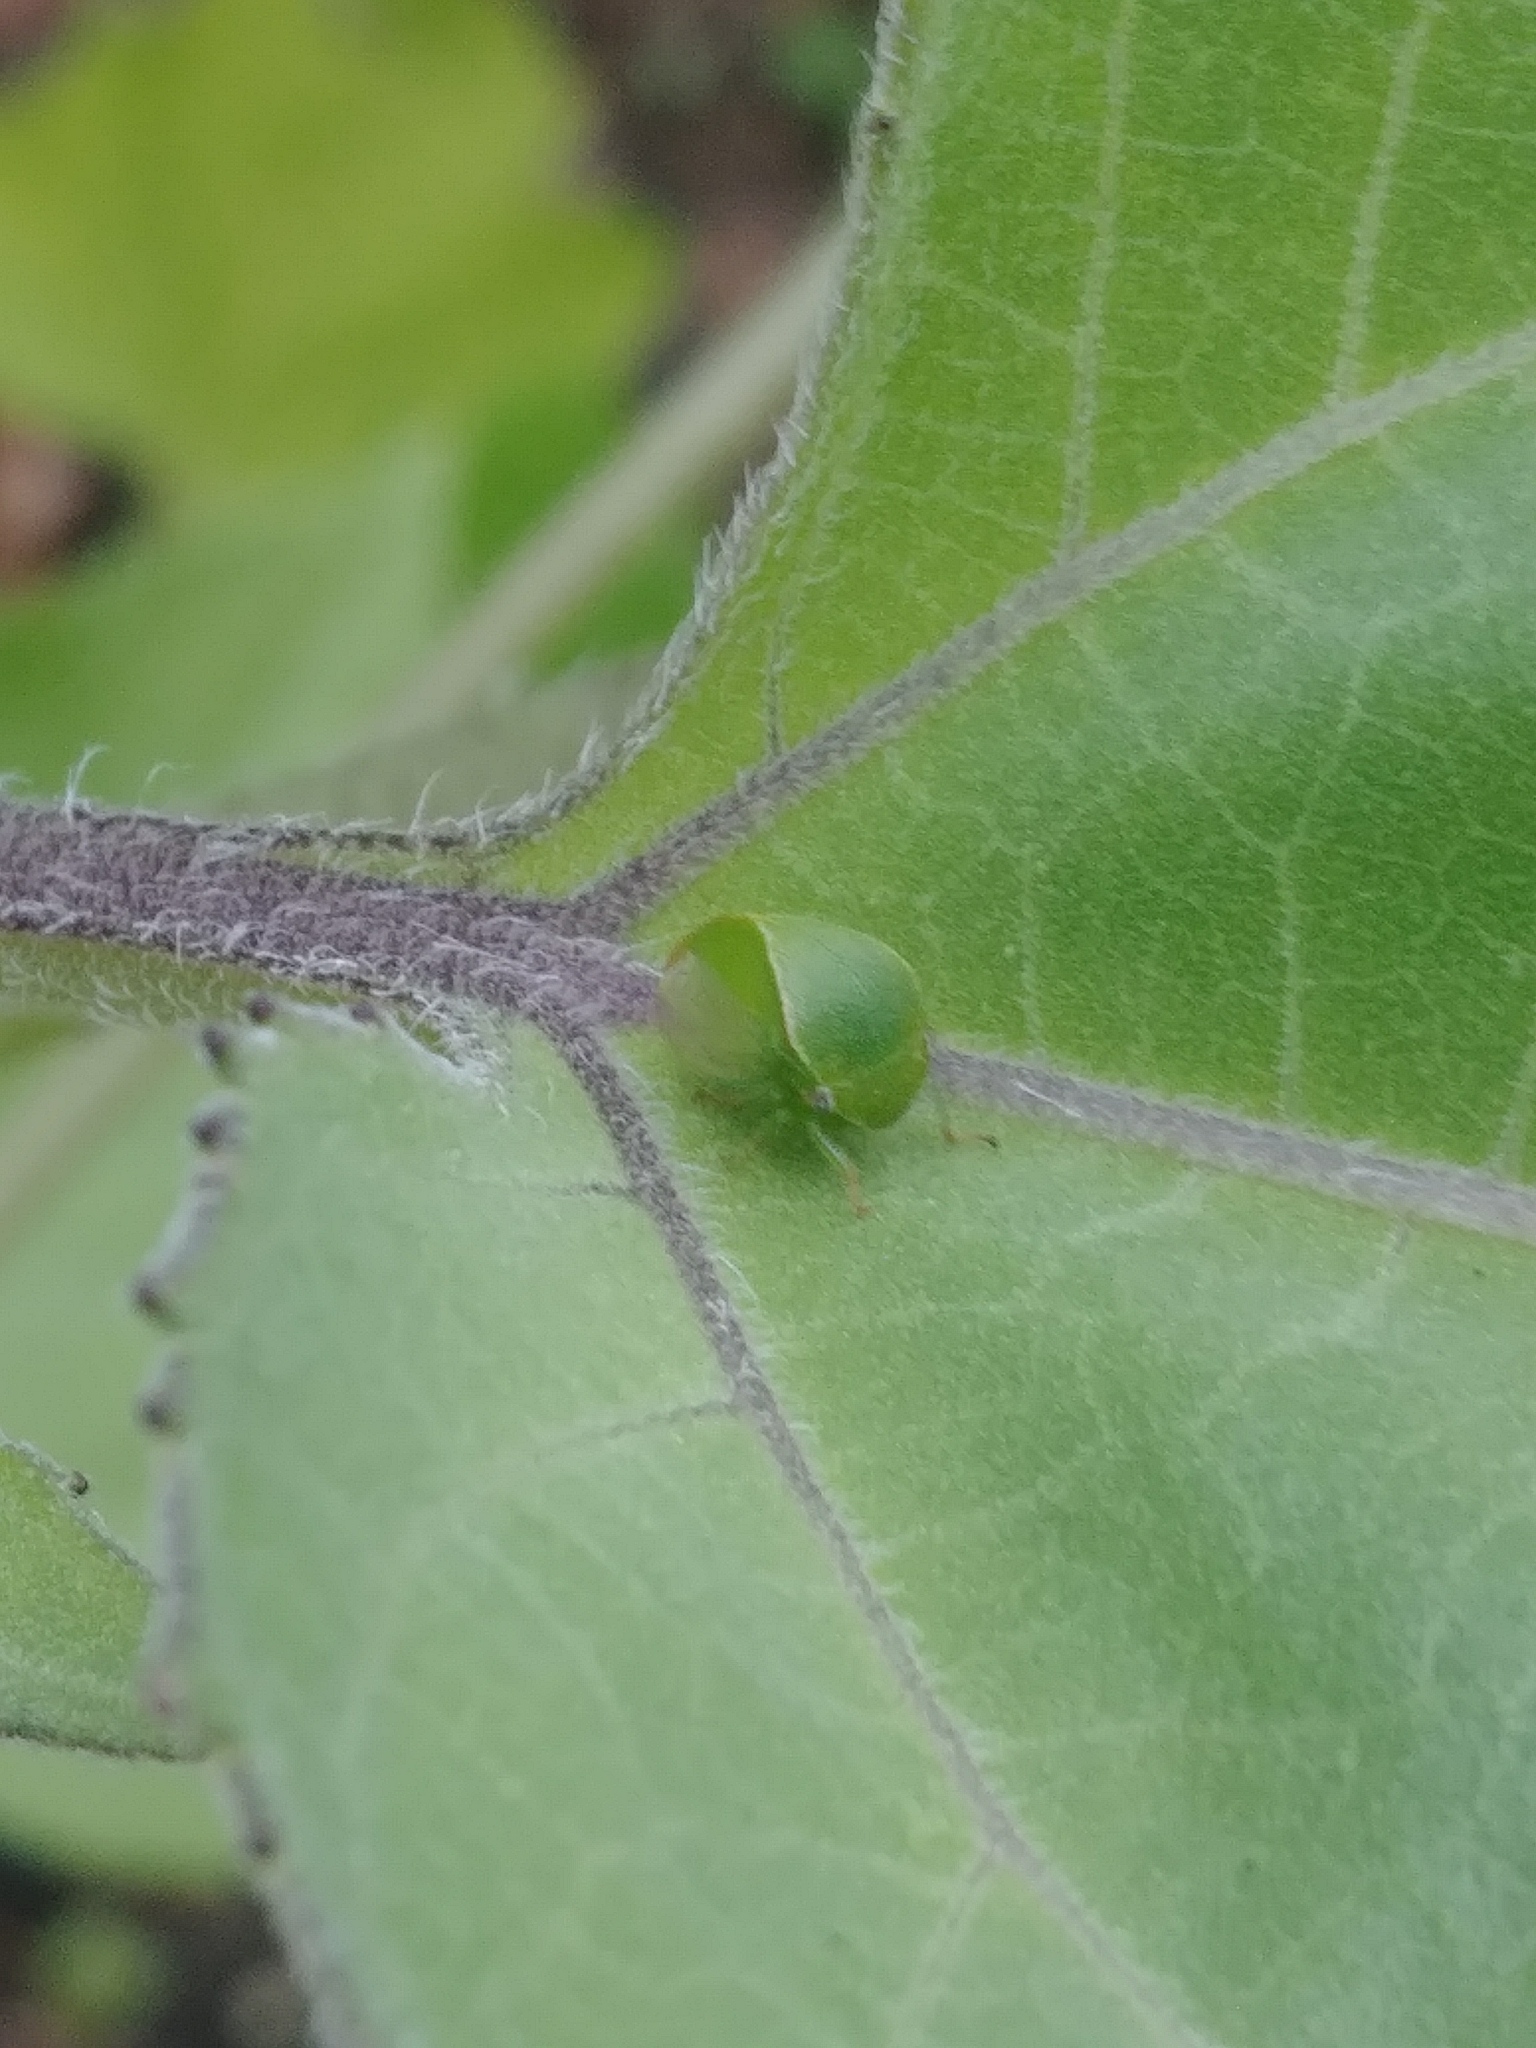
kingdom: Animalia
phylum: Arthropoda
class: Insecta
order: Hemiptera
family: Membracidae
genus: Spissistilus
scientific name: Spissistilus festina
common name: Membracid bug
